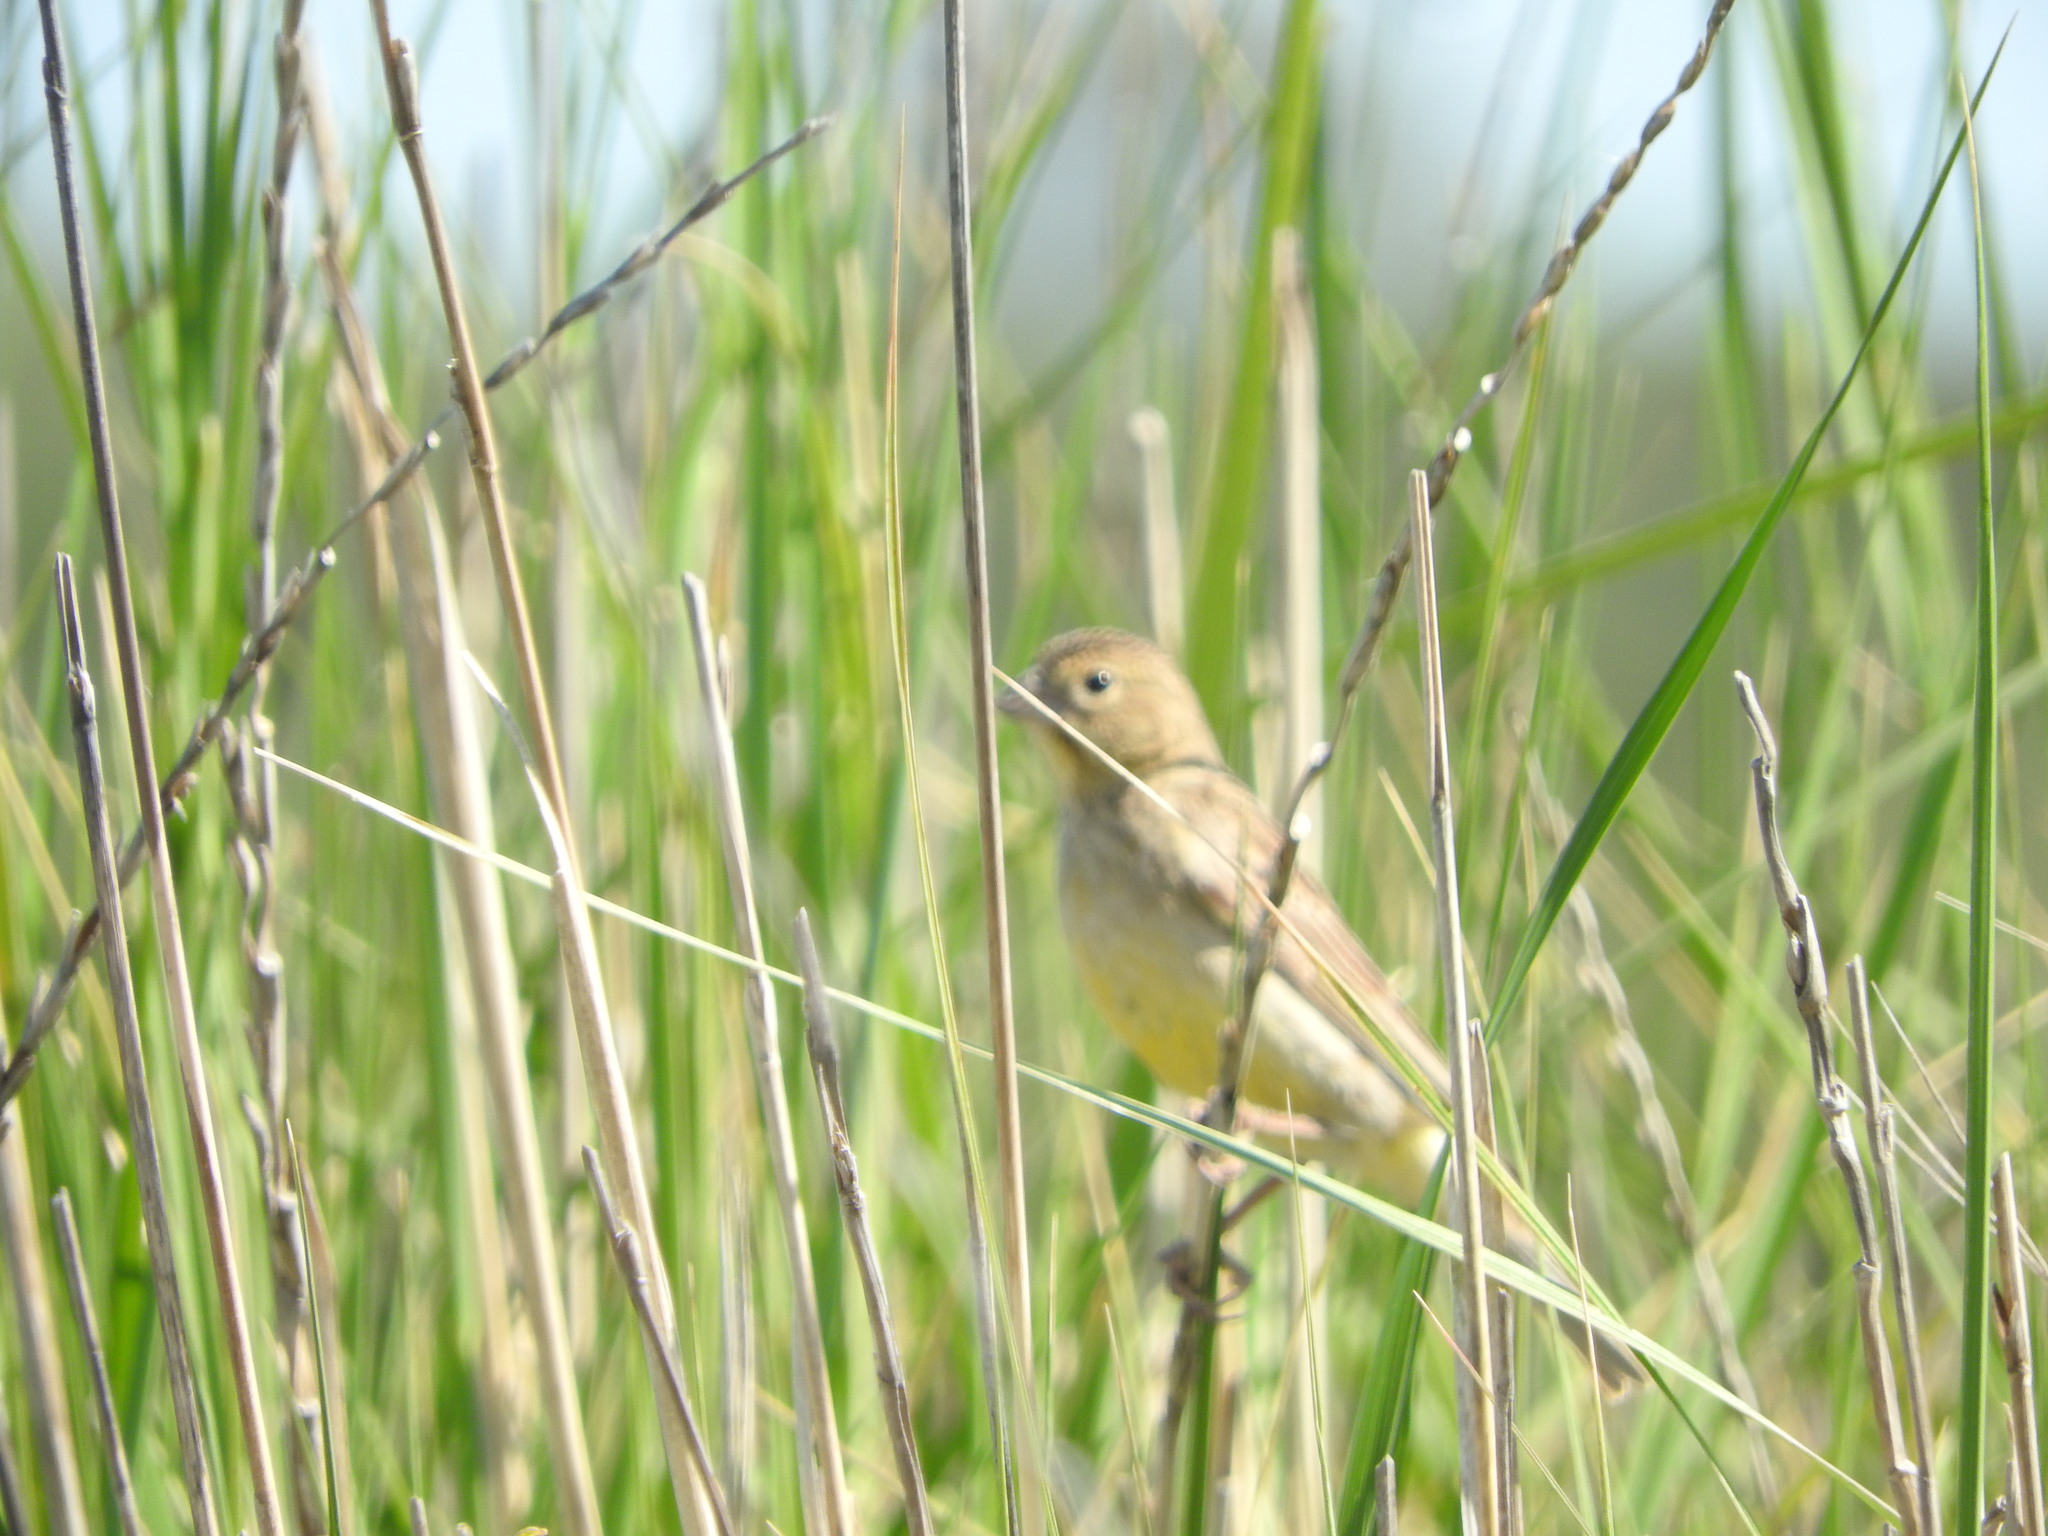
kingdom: Animalia
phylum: Chordata
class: Aves
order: Passeriformes
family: Thraupidae
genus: Sicalis
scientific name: Sicalis luteola
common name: Grassland yellow-finch
